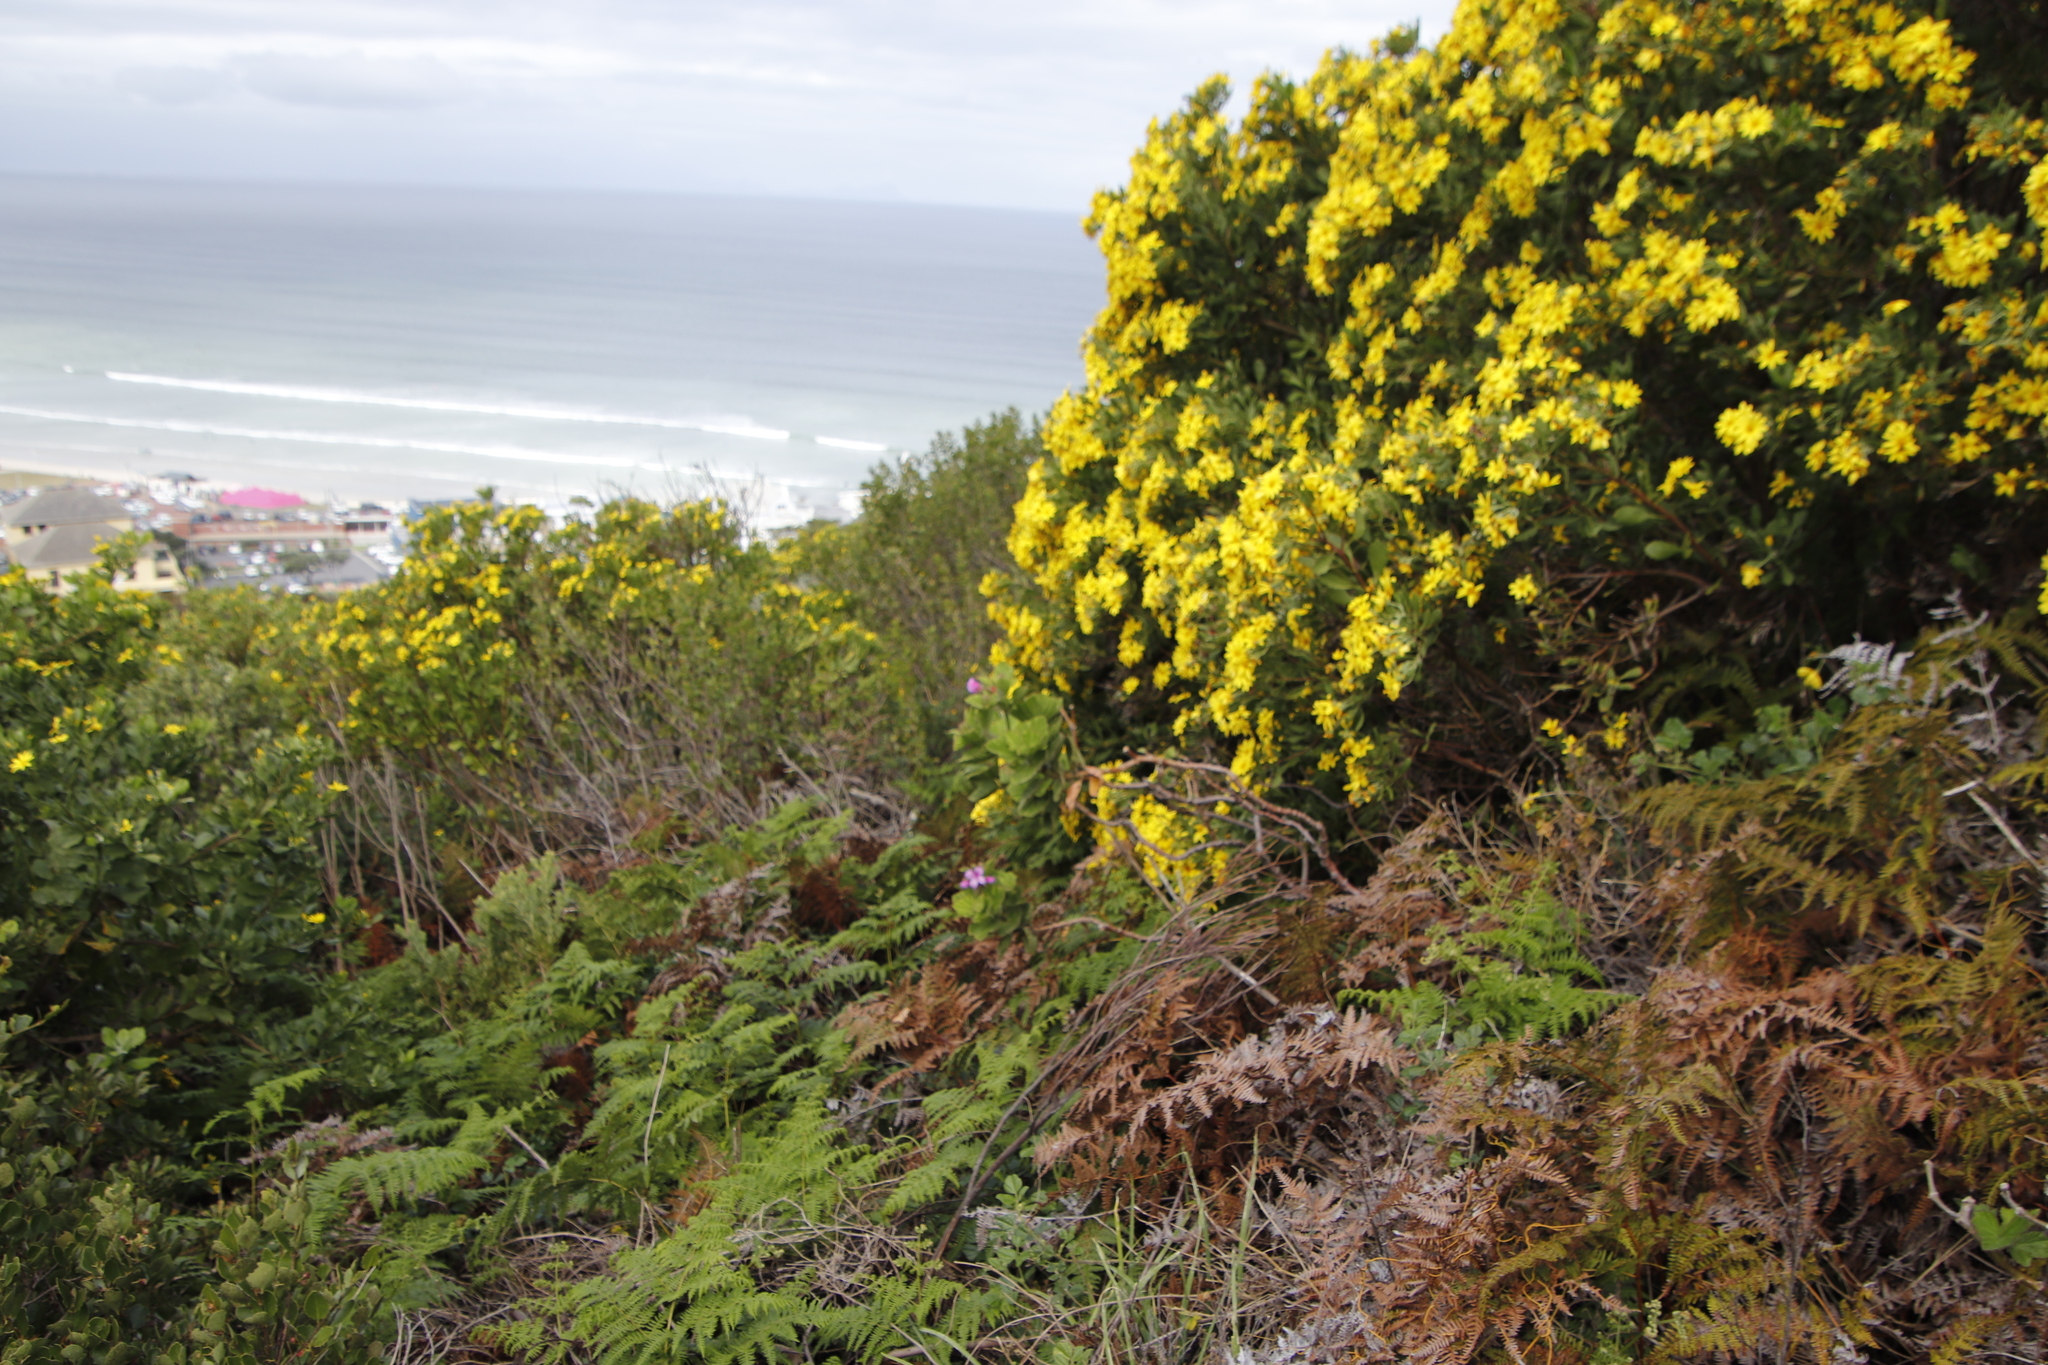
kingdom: Plantae
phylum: Tracheophyta
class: Polypodiopsida
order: Polypodiales
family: Dennstaedtiaceae
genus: Pteridium
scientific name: Pteridium aquilinum
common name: Bracken
